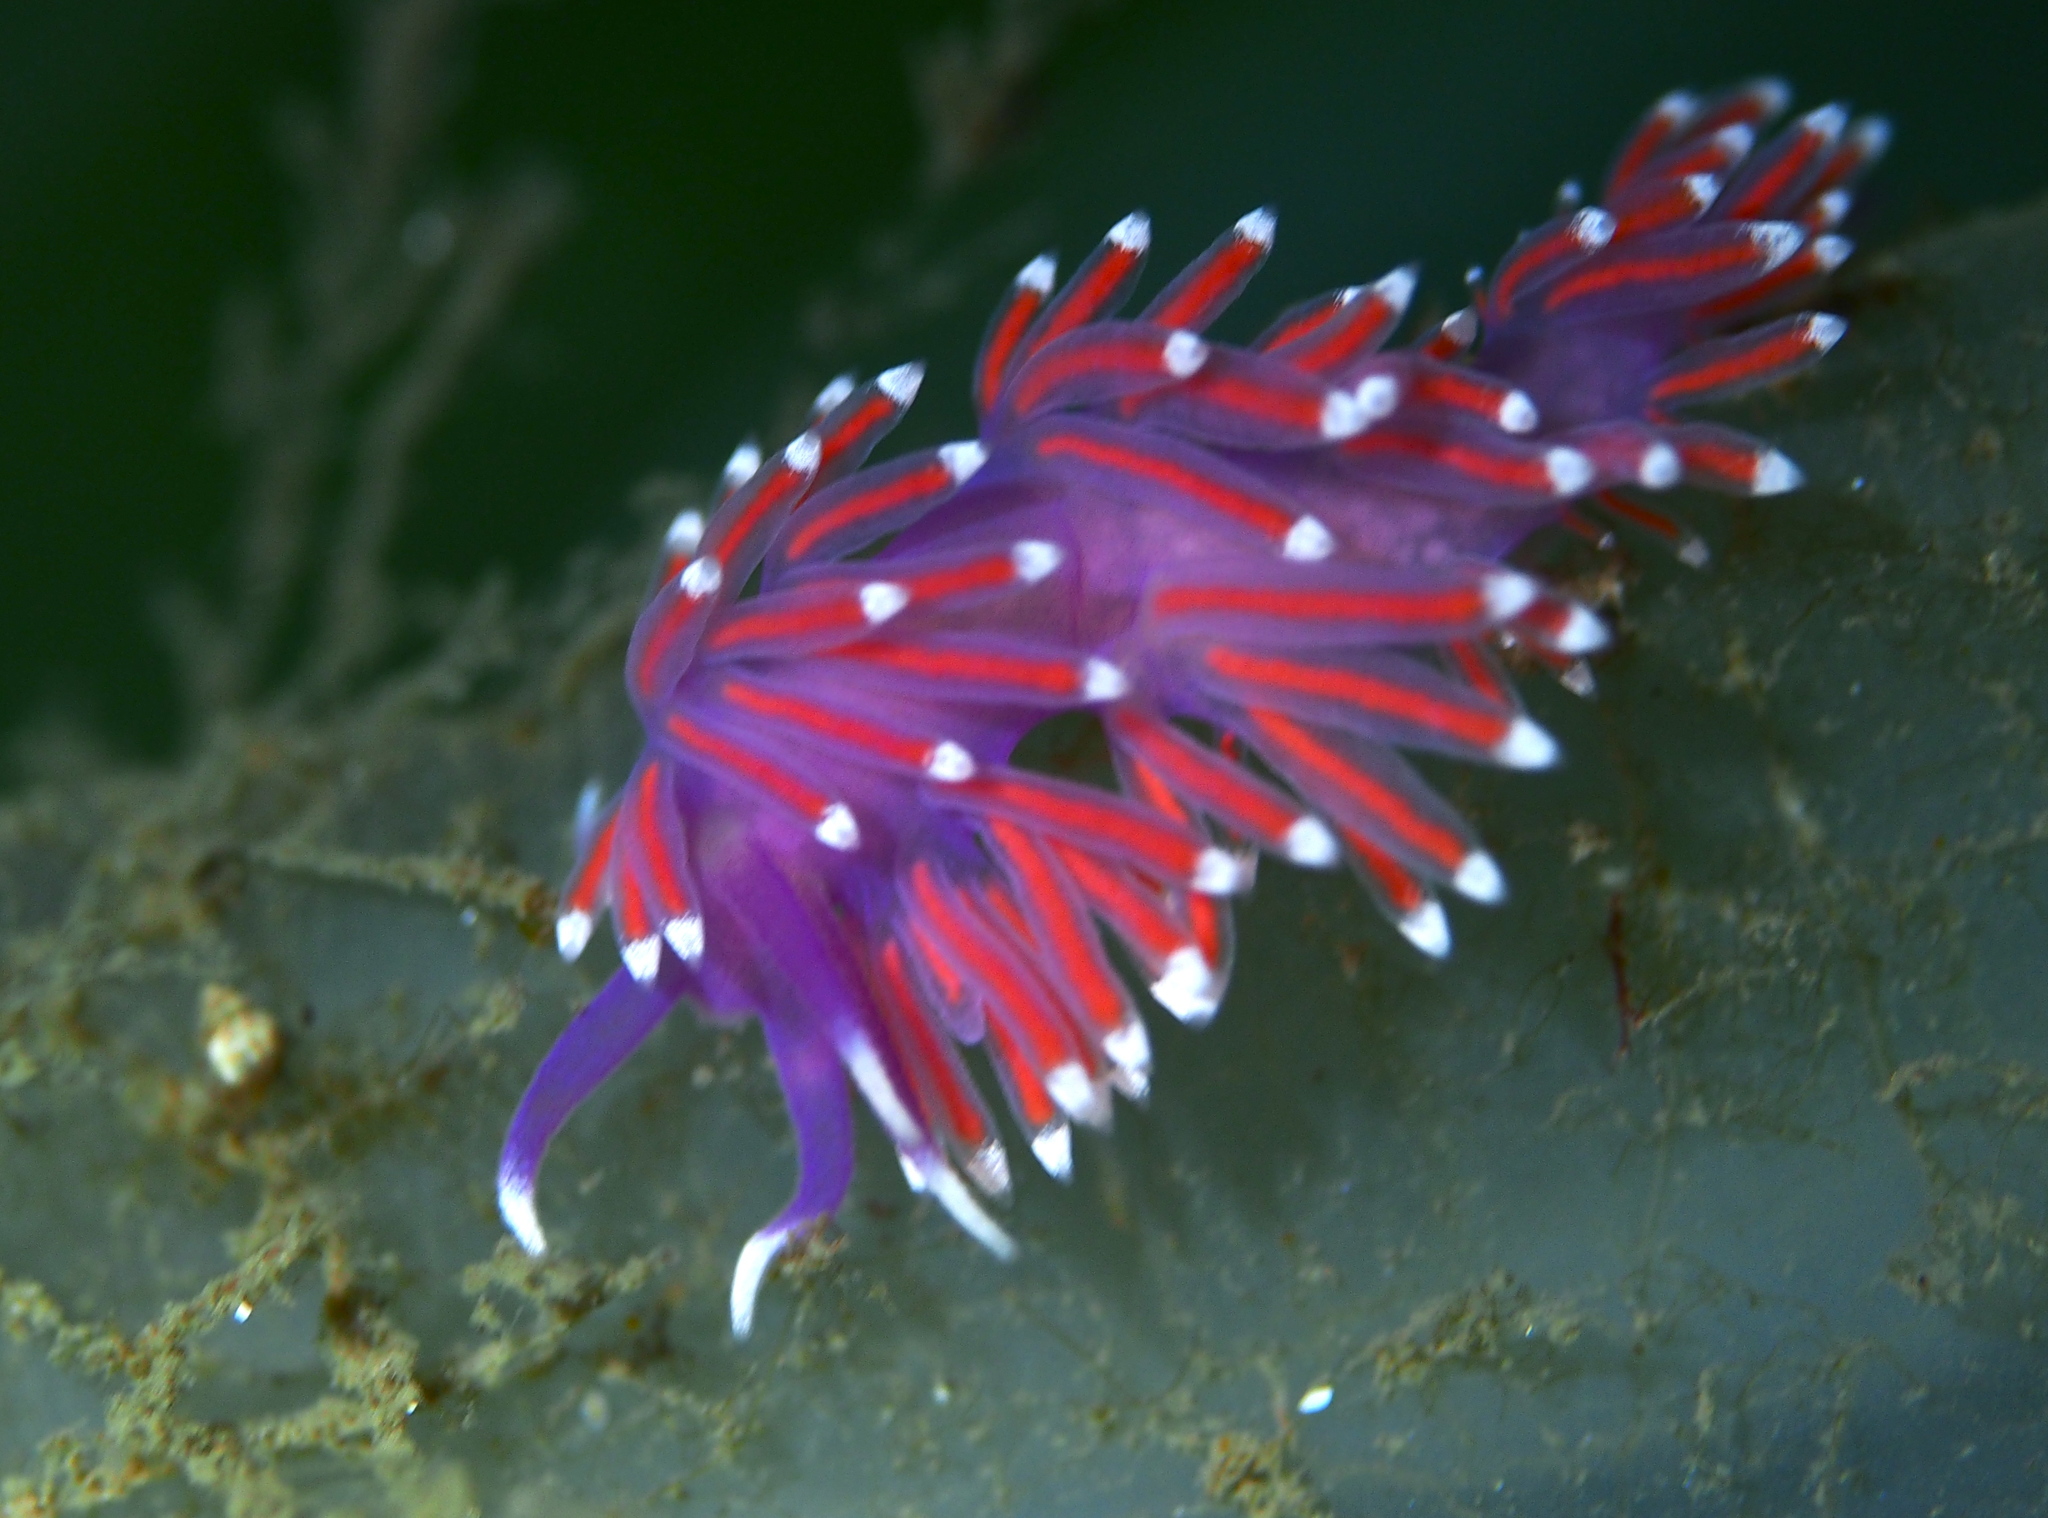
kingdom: Animalia
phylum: Mollusca
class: Gastropoda
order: Nudibranchia
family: Flabellinidae
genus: Edmundsella
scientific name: Edmundsella pedata
